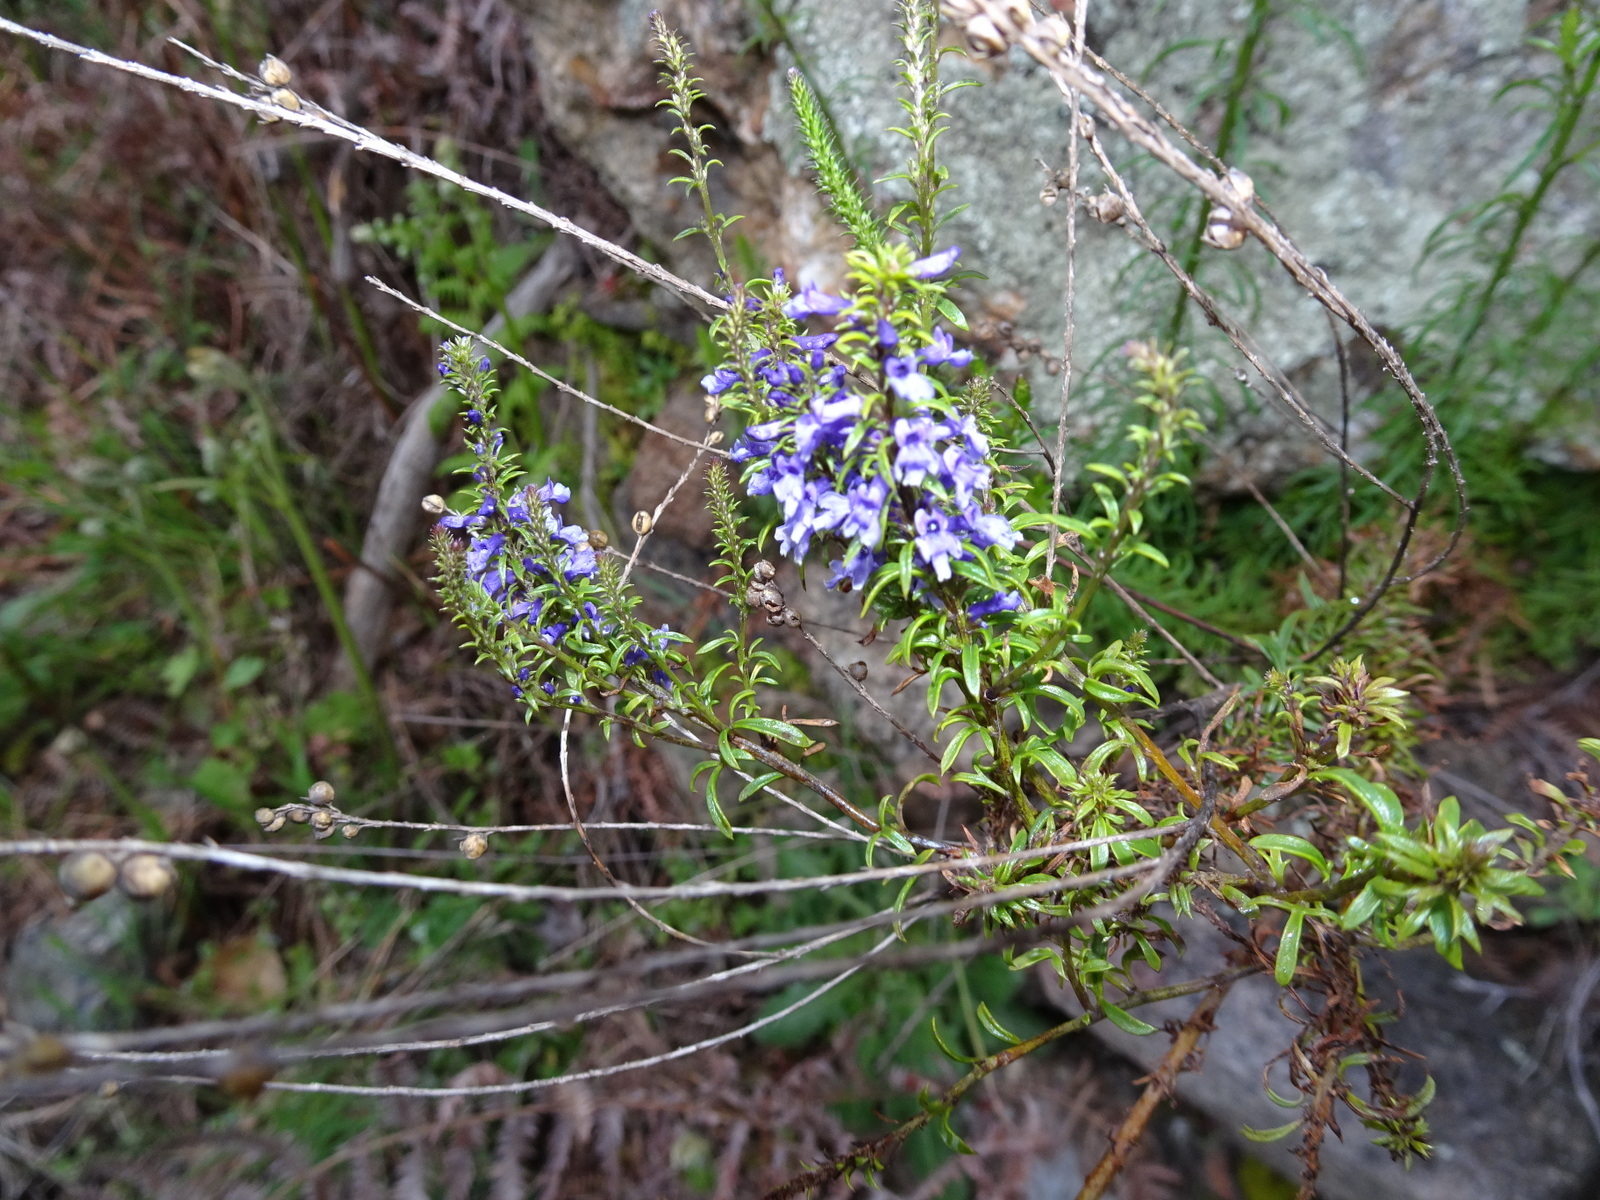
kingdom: Plantae
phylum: Tracheophyta
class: Magnoliopsida
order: Lamiales
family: Plantaginaceae
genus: Anarrhinum
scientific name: Anarrhinum bellidifolium
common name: Daisy-leaved toadflax
